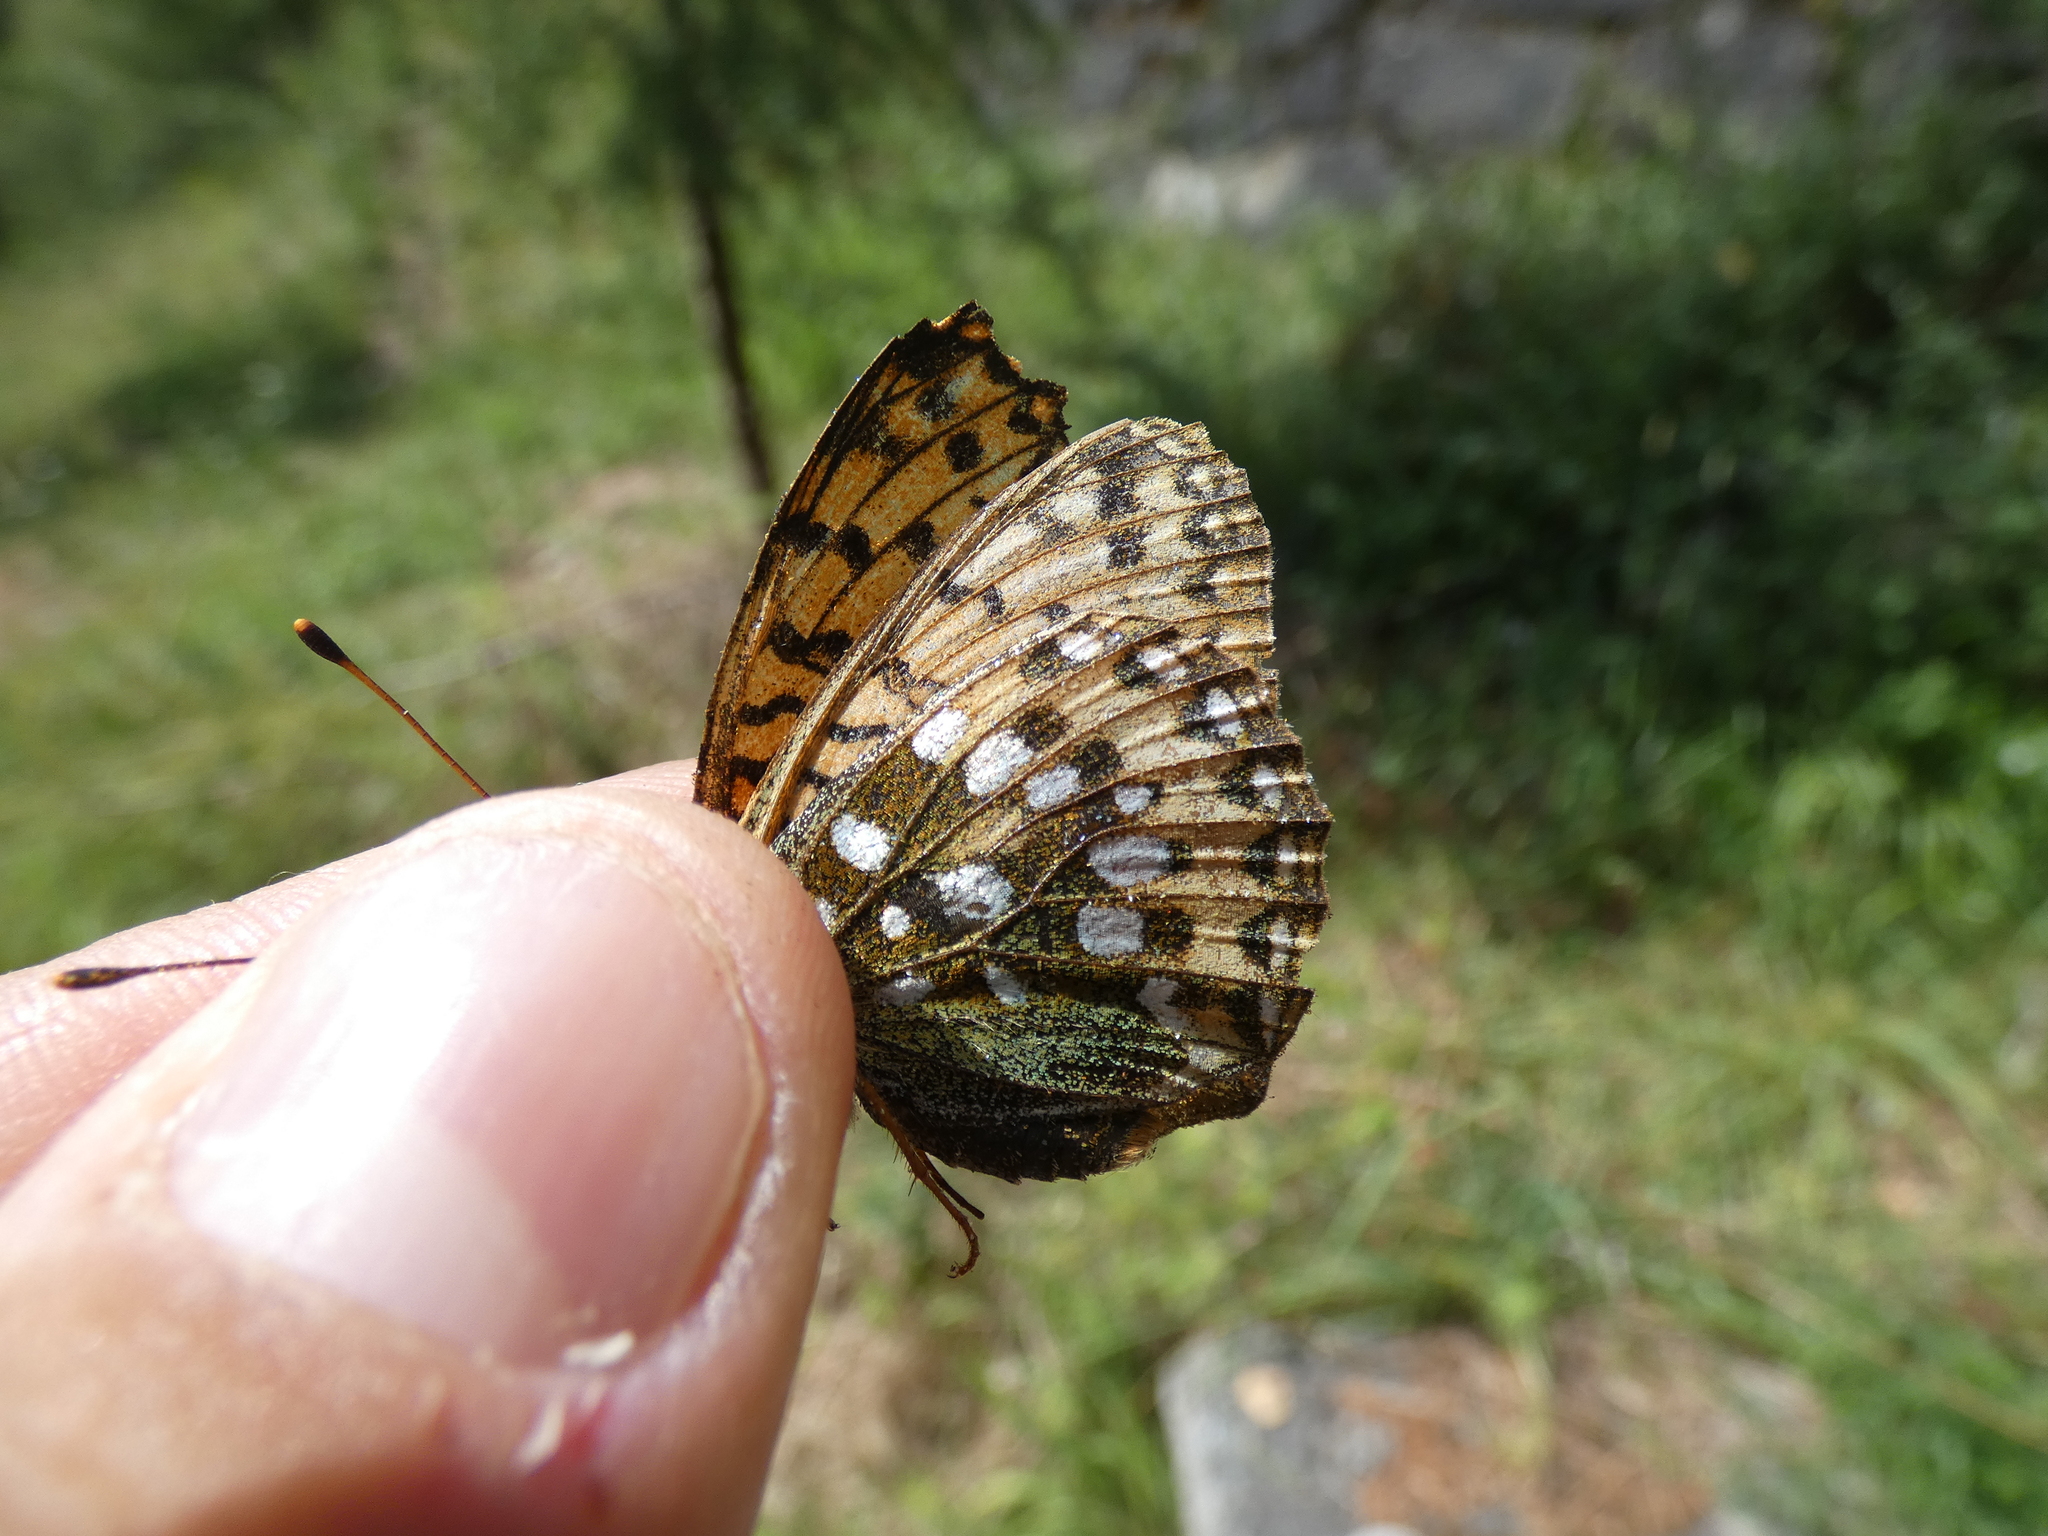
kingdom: Animalia
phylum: Arthropoda
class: Insecta
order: Lepidoptera
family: Nymphalidae
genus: Speyeria
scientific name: Speyeria aglaja
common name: Dark green fritillary
